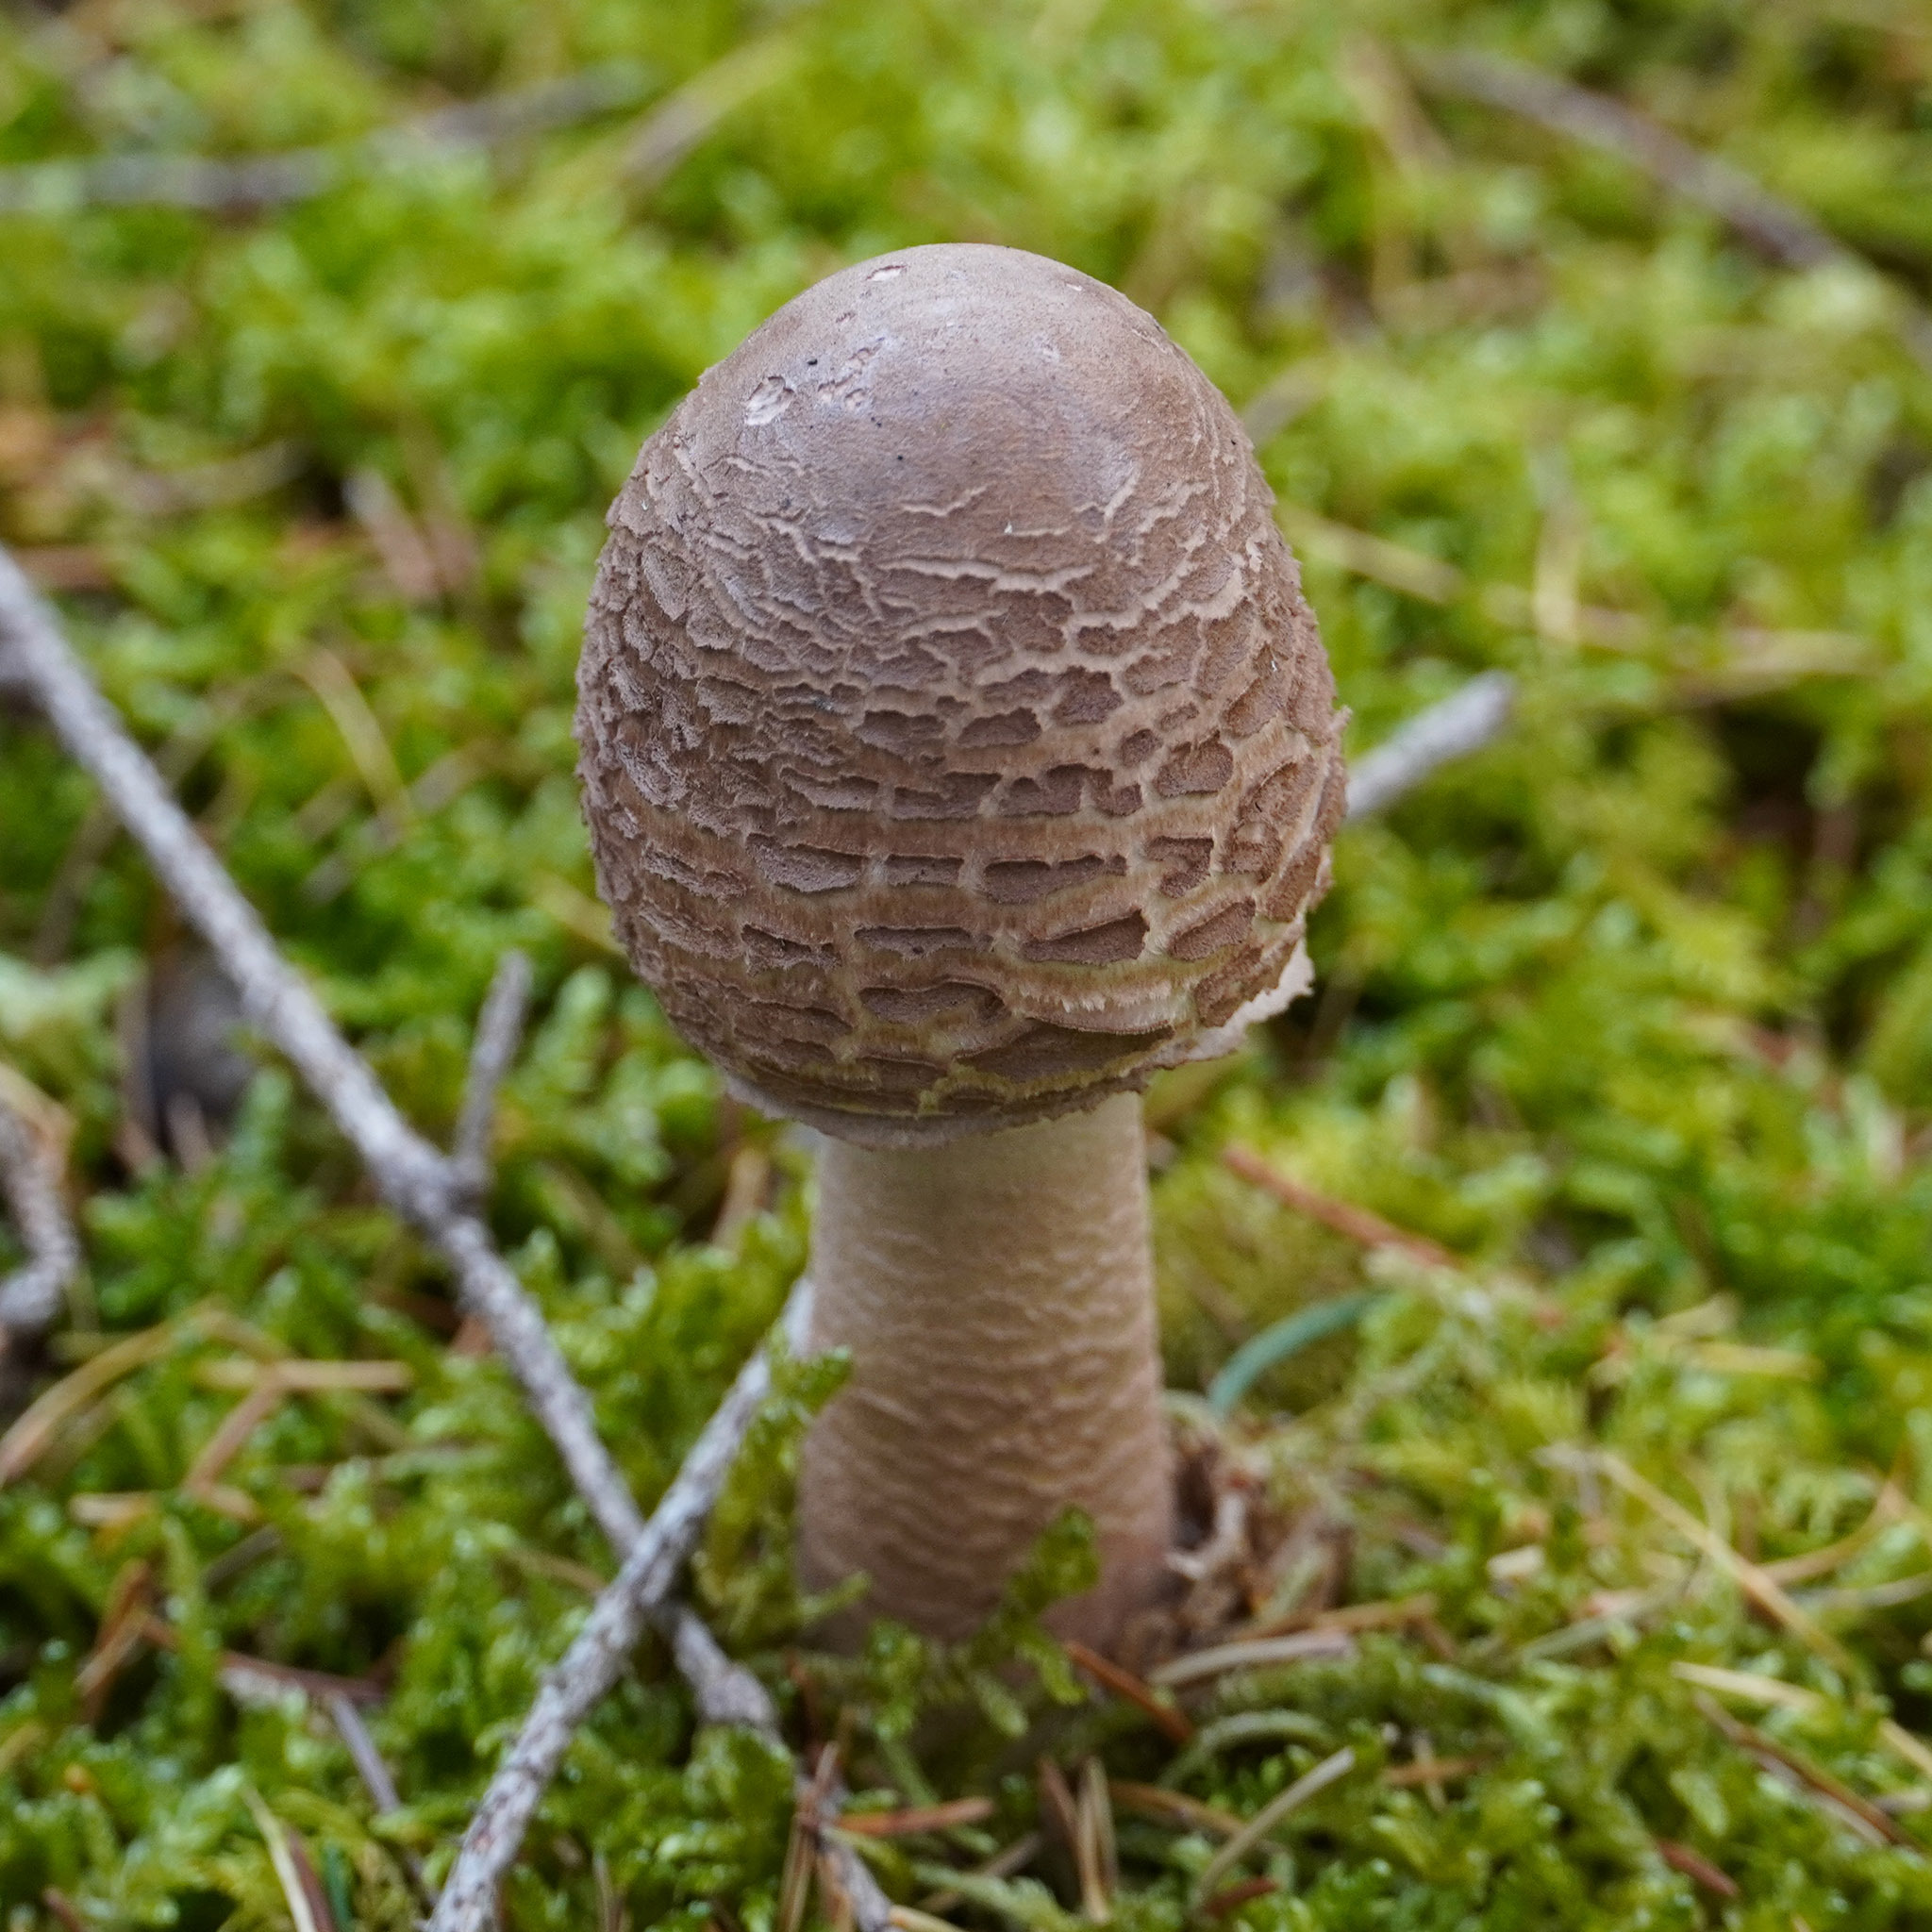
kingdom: Fungi
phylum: Basidiomycota
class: Agaricomycetes
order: Agaricales
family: Agaricaceae
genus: Macrolepiota
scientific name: Macrolepiota procera
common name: Parasol
